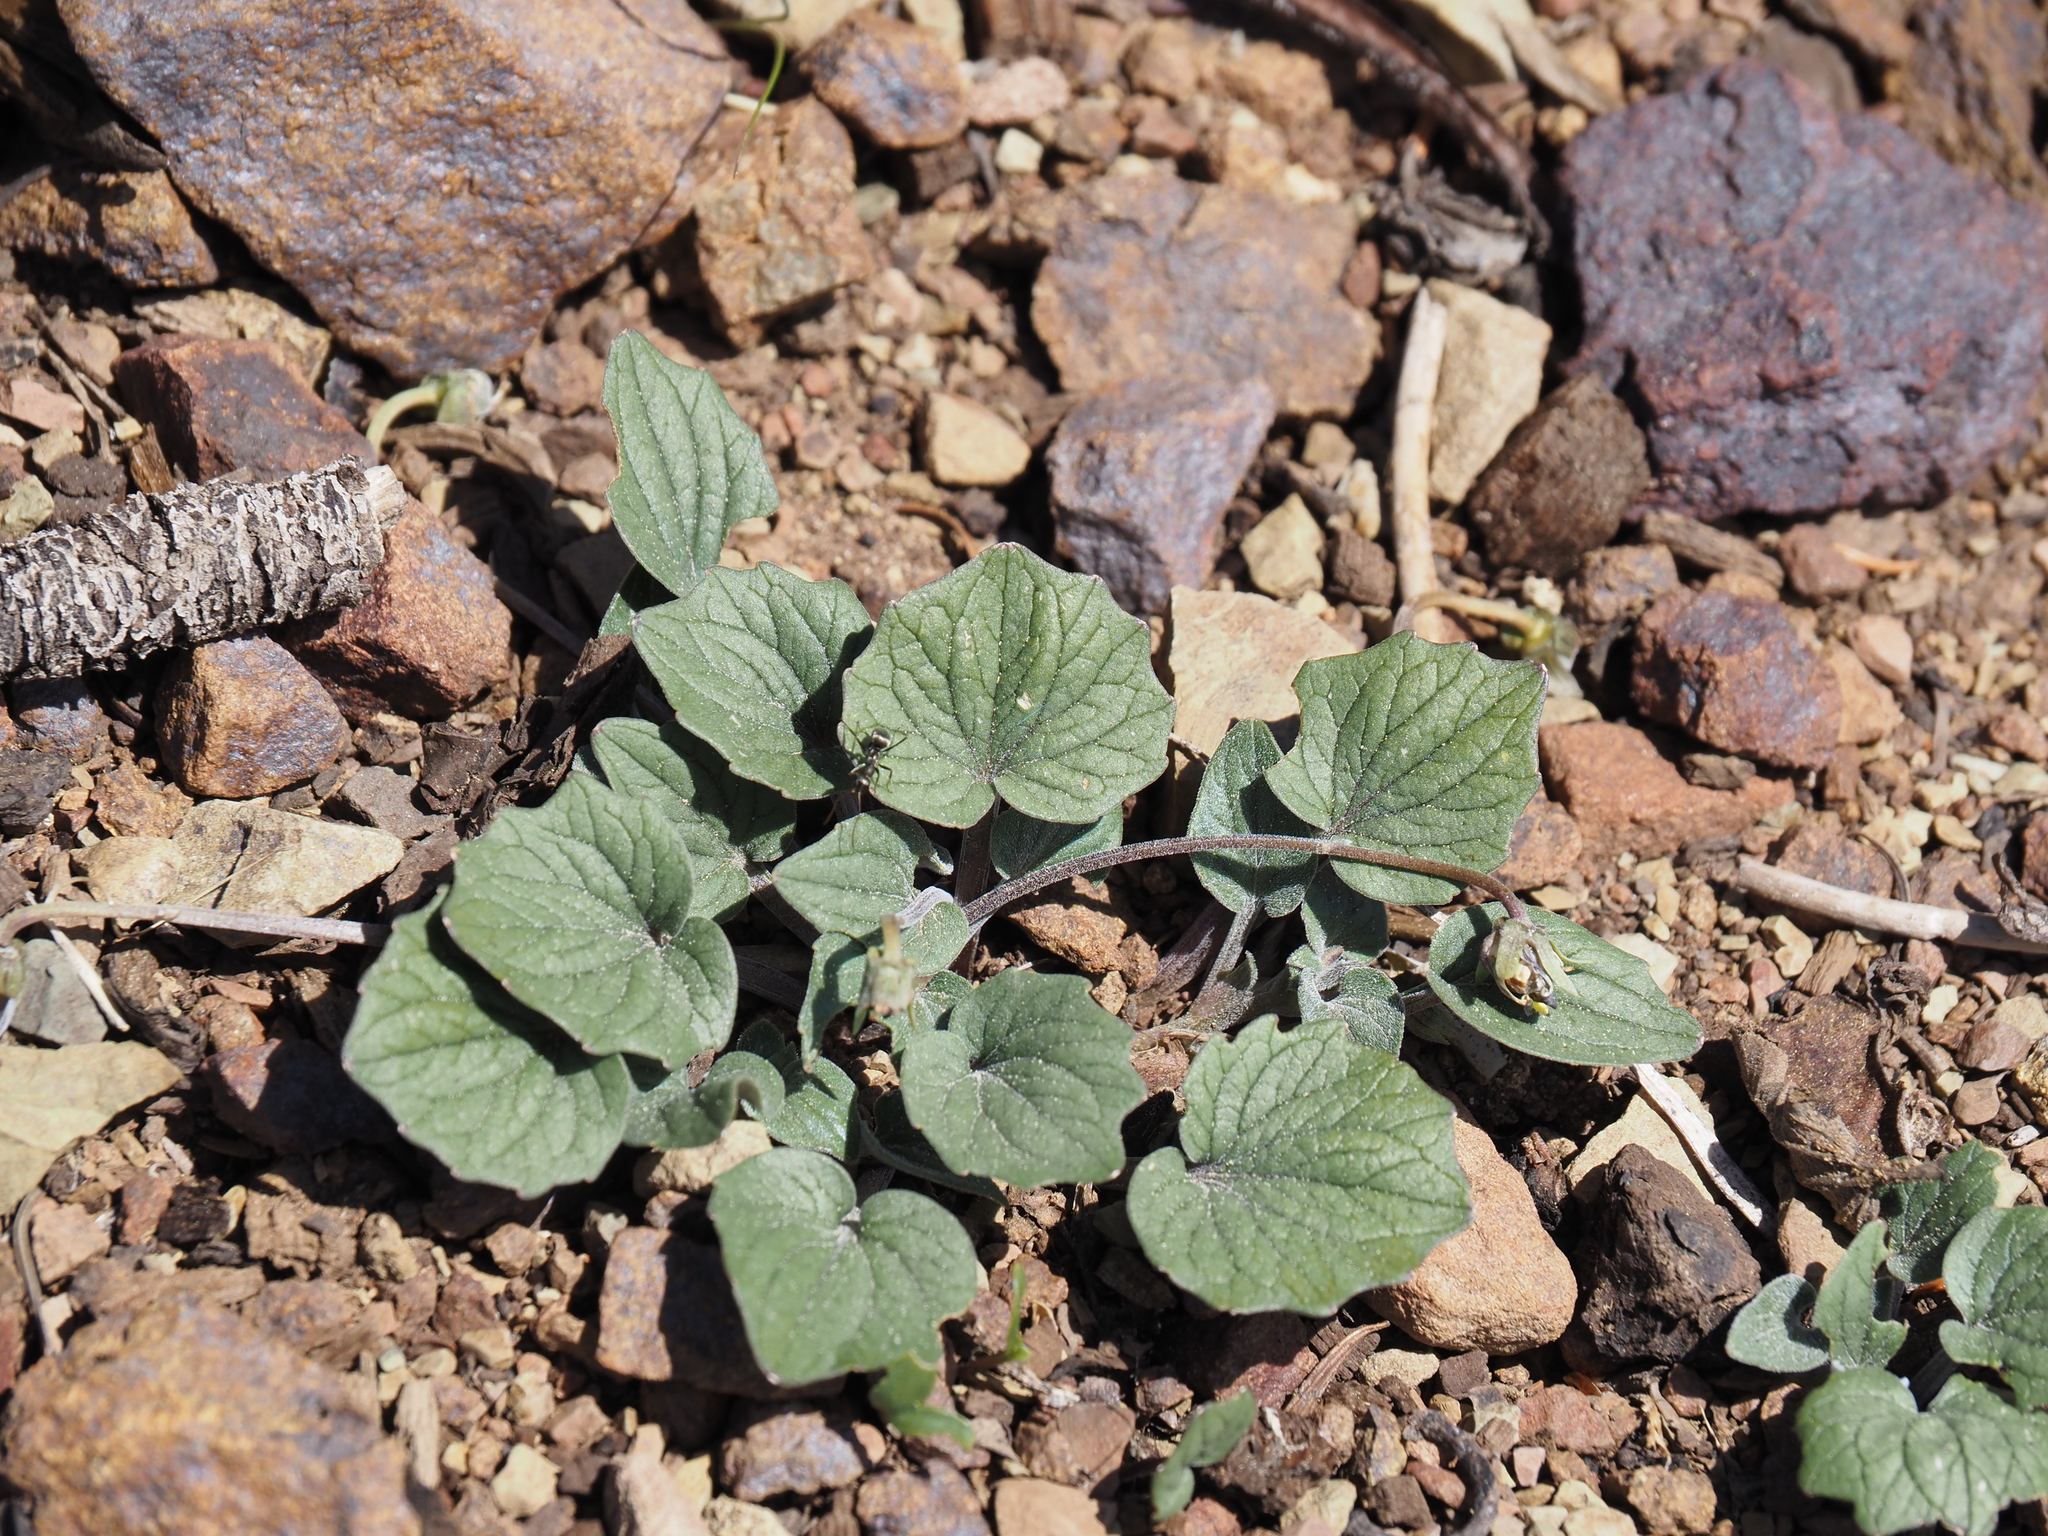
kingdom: Plantae
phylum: Tracheophyta
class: Magnoliopsida
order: Malpighiales
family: Violaceae
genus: Viola
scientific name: Viola purpurea
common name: Pine violet
